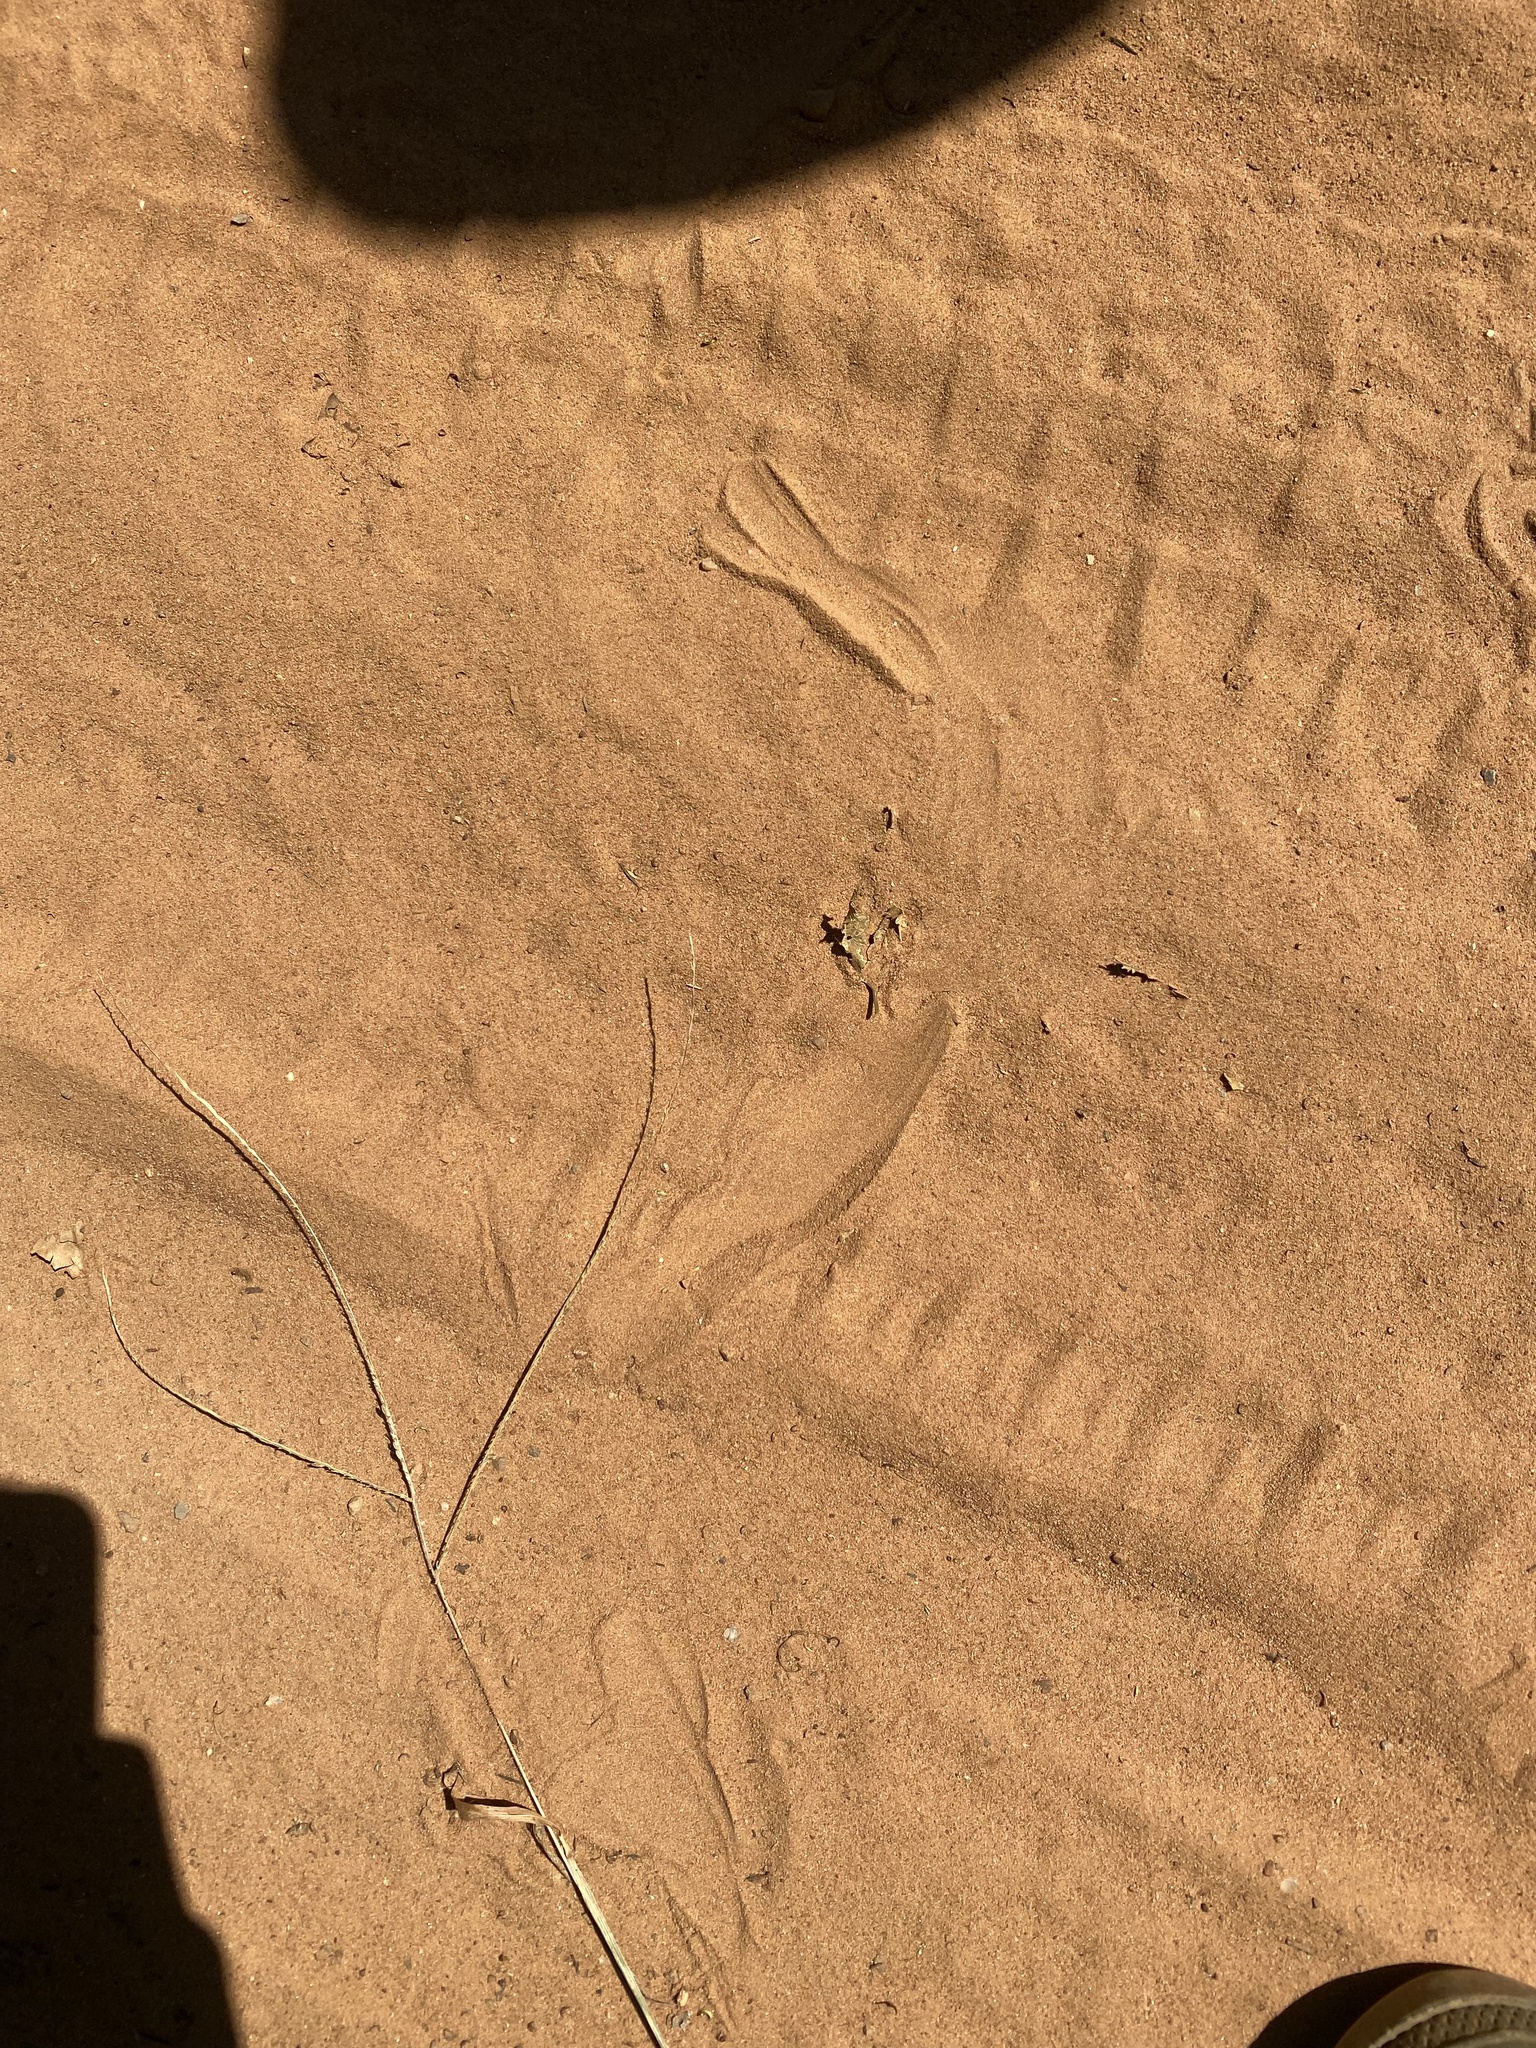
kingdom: Animalia
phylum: Chordata
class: Squamata
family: Psammophiidae
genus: Psammophis
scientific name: Psammophis subtaeniatus
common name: Stripe-bellied sand snake
